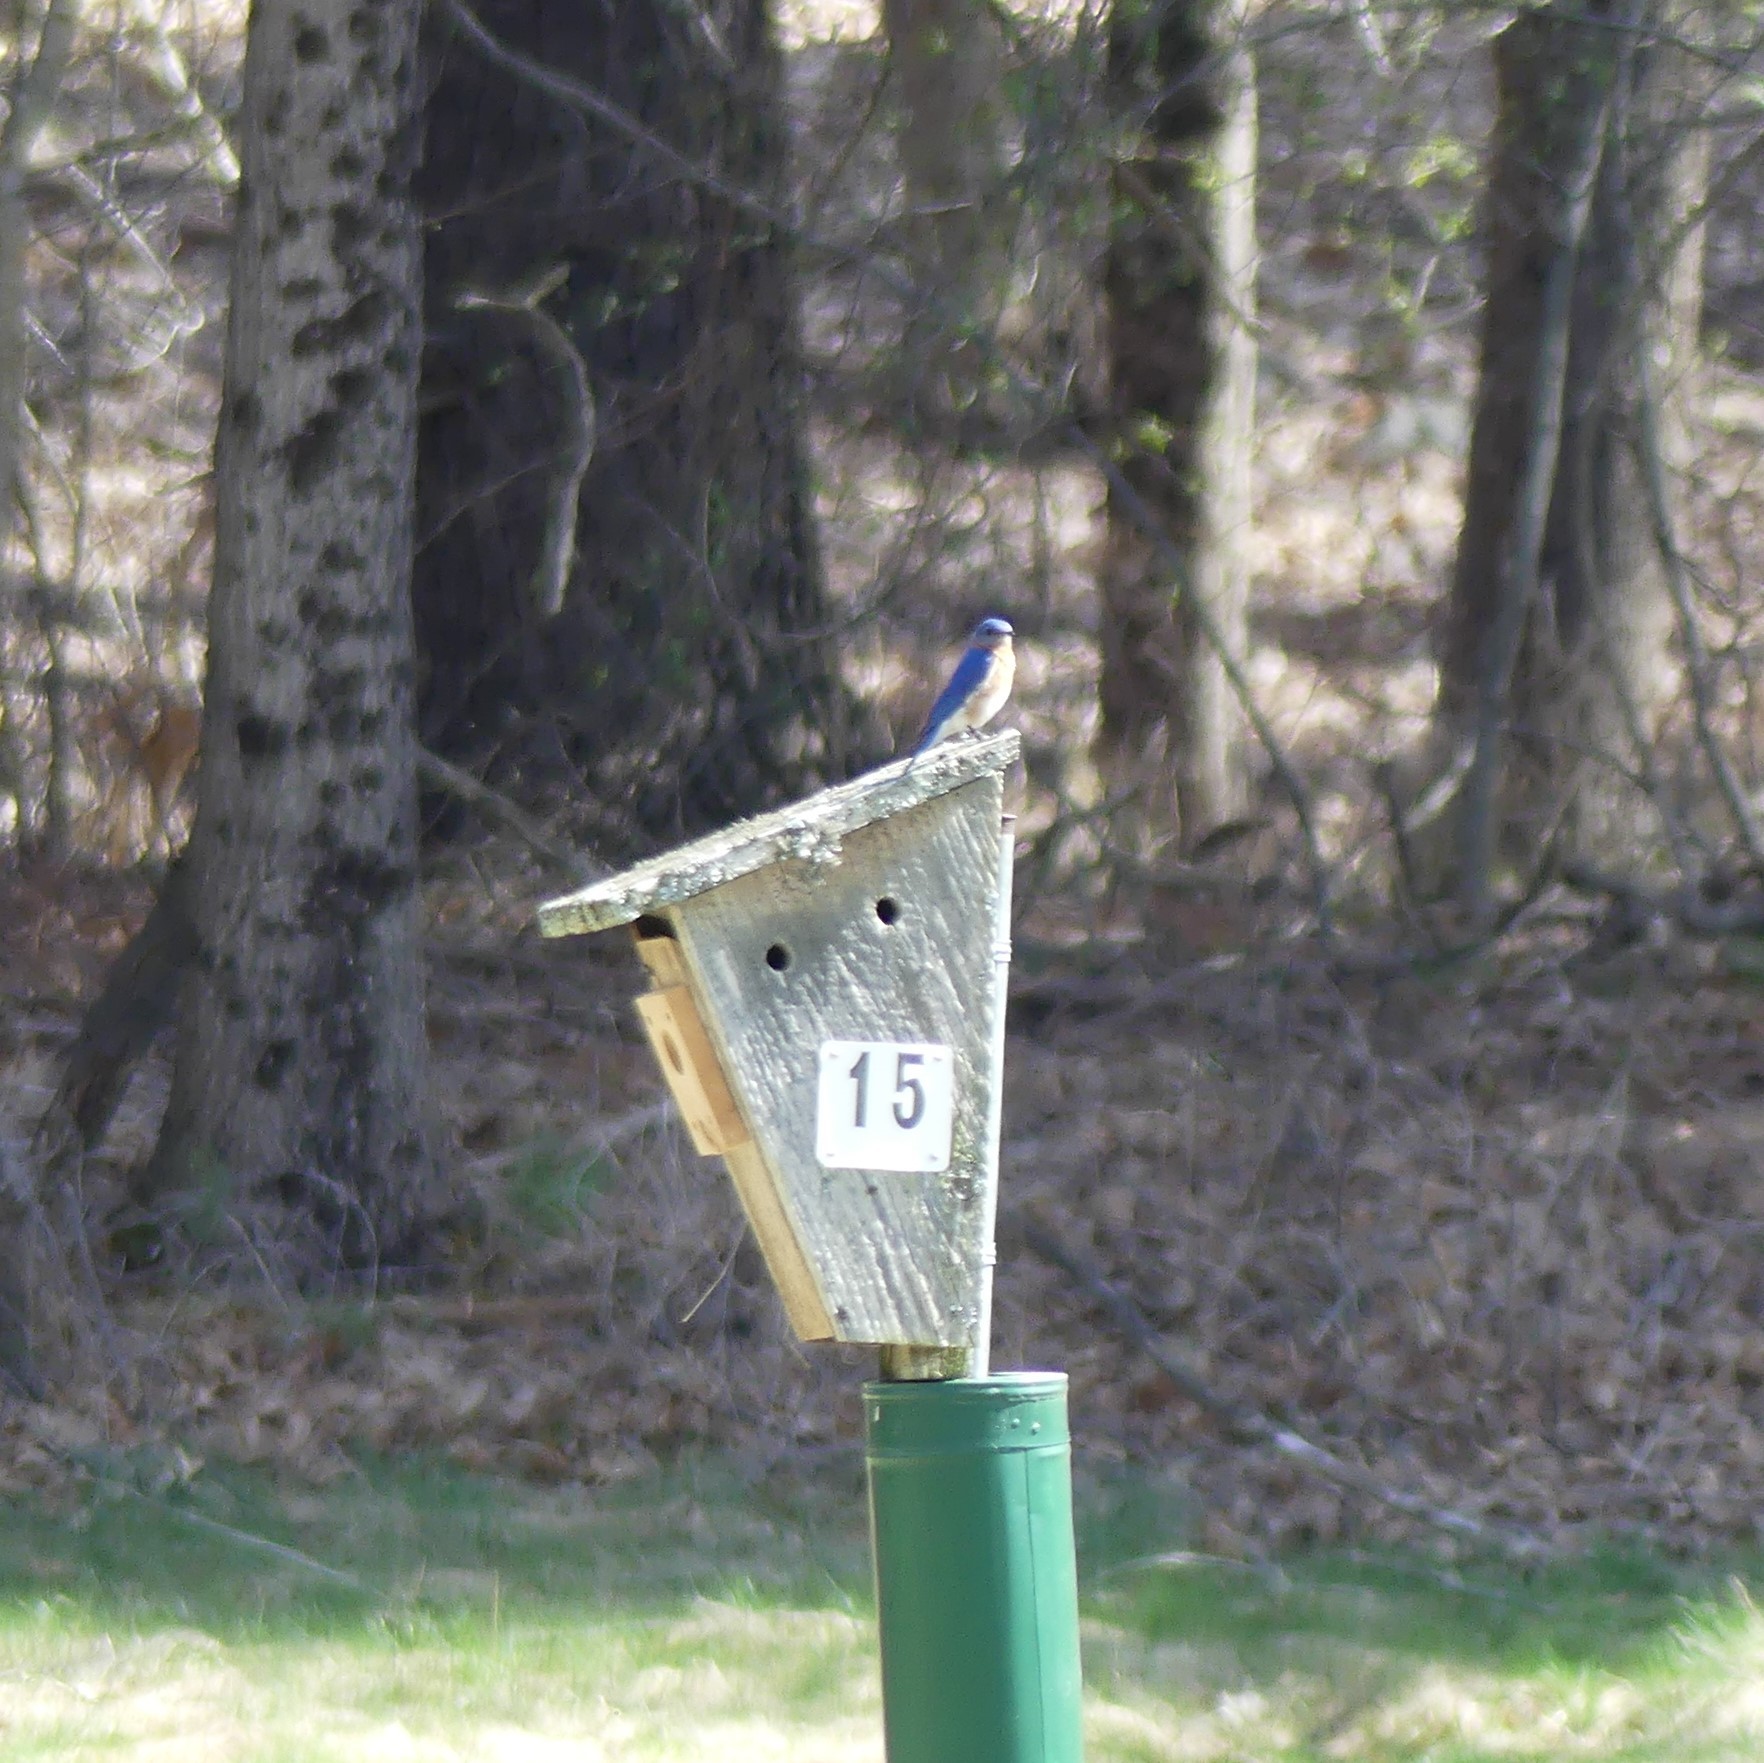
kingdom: Animalia
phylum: Chordata
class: Aves
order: Passeriformes
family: Turdidae
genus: Sialia
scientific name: Sialia sialis
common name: Eastern bluebird
